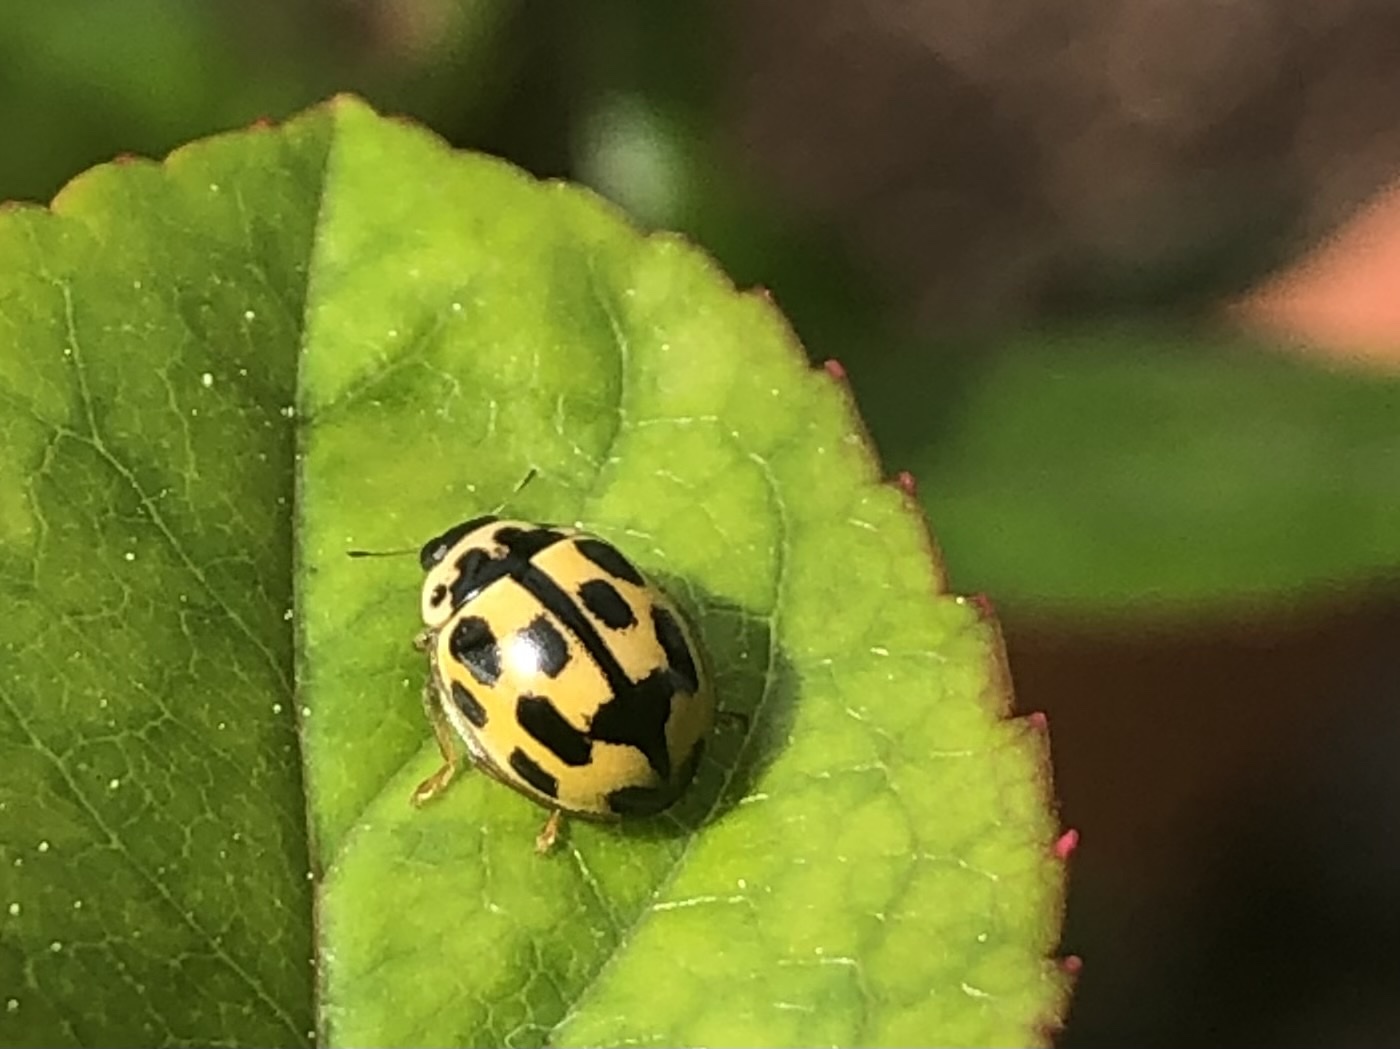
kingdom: Animalia
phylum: Arthropoda
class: Insecta
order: Coleoptera
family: Coccinellidae
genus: Propylaea
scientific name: Propylaea quatuordecimpunctata
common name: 14-spotted ladybird beetle
